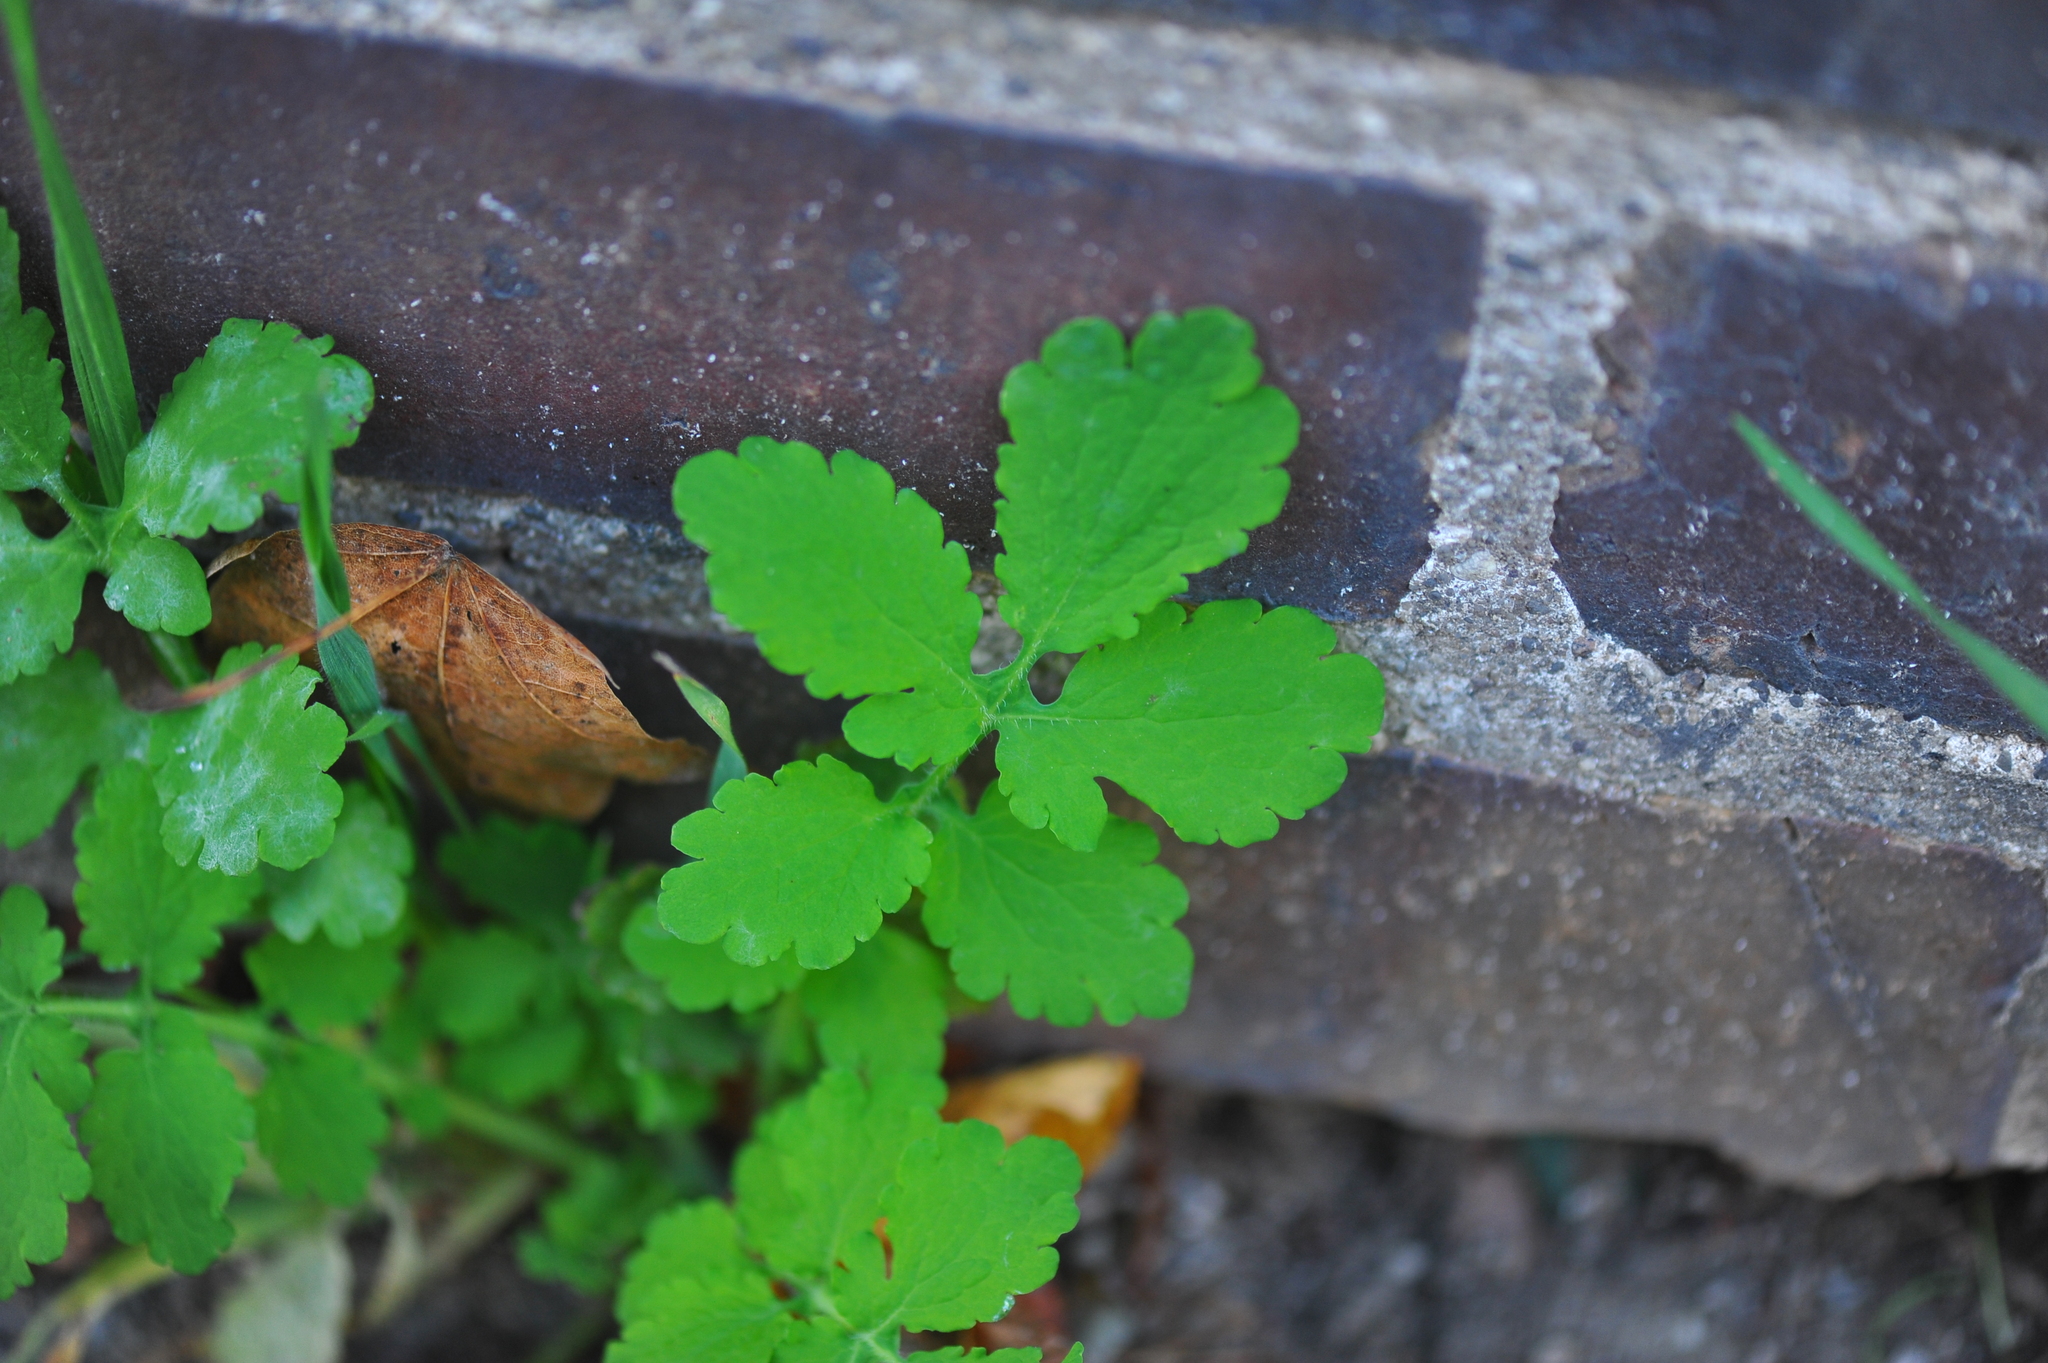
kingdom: Plantae
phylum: Tracheophyta
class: Magnoliopsida
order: Ranunculales
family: Papaveraceae
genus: Chelidonium
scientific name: Chelidonium majus
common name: Greater celandine
